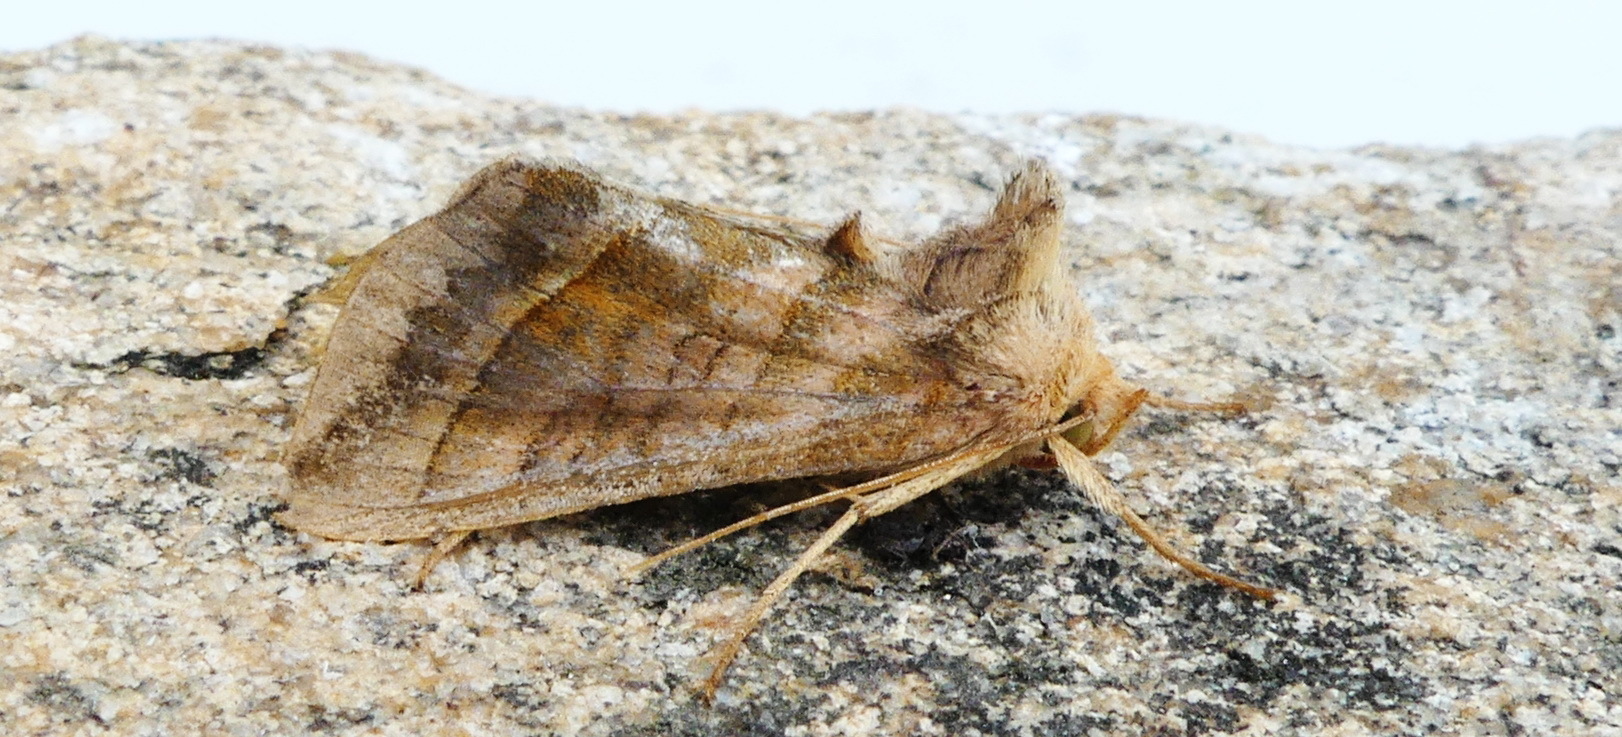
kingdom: Animalia
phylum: Arthropoda
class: Insecta
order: Lepidoptera
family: Noctuidae
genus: Diachrysia
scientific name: Diachrysia aereoides
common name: Dark-spotted looper moth
